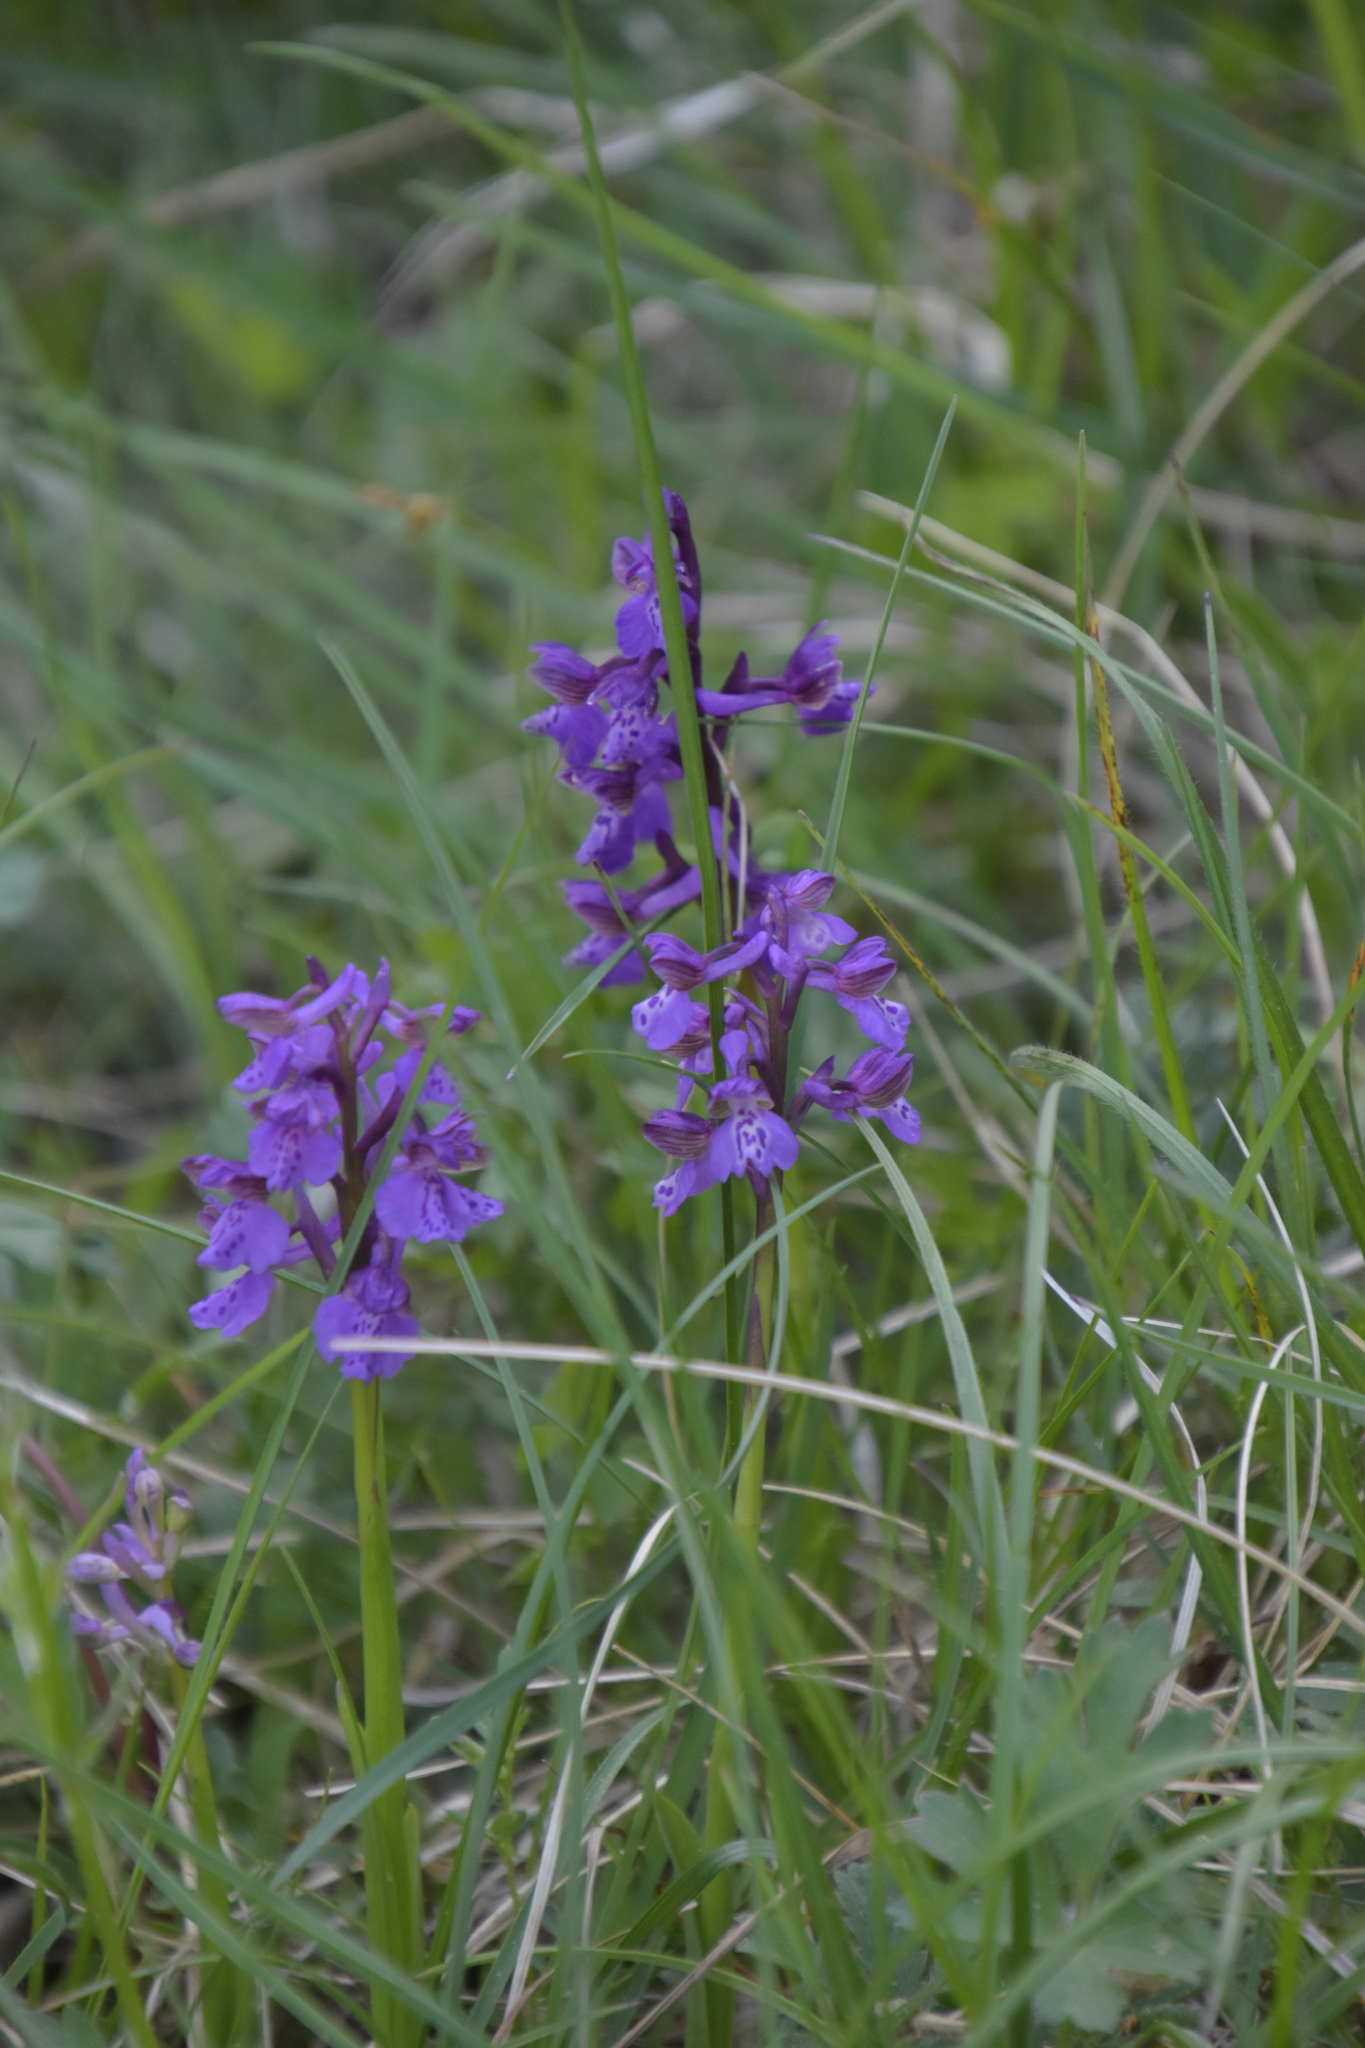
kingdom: Plantae
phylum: Tracheophyta
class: Liliopsida
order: Asparagales
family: Orchidaceae
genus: Anacamptis
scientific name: Anacamptis morio
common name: Green-winged orchid
